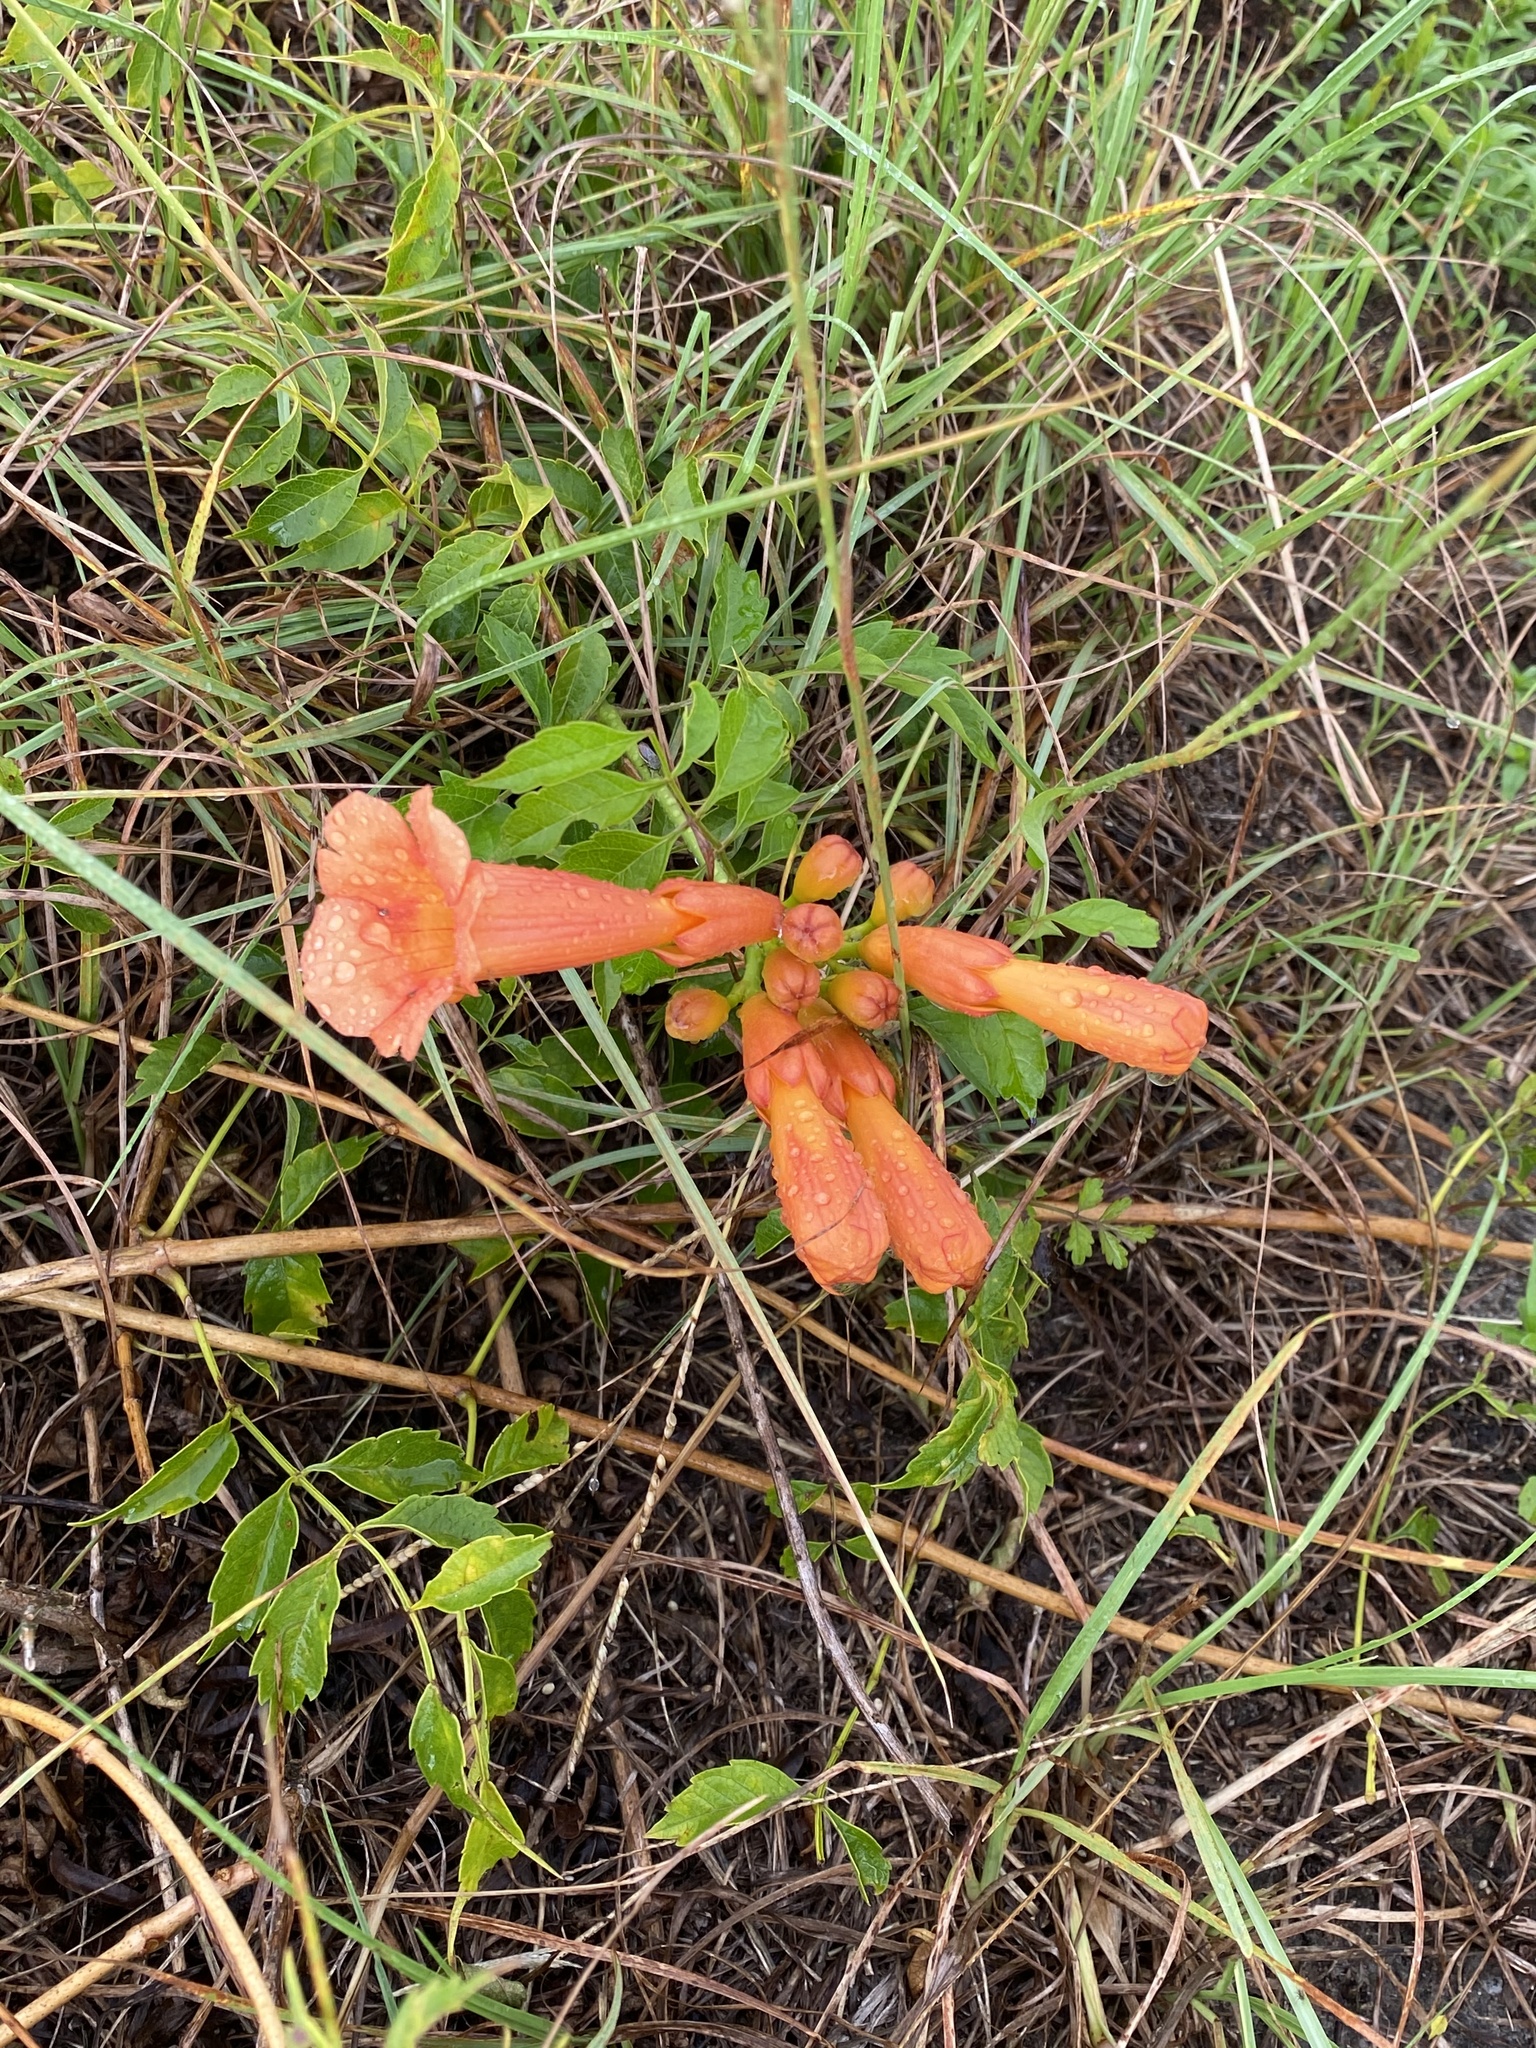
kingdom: Plantae
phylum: Tracheophyta
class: Magnoliopsida
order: Lamiales
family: Bignoniaceae
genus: Campsis
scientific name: Campsis radicans
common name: Trumpet-creeper
